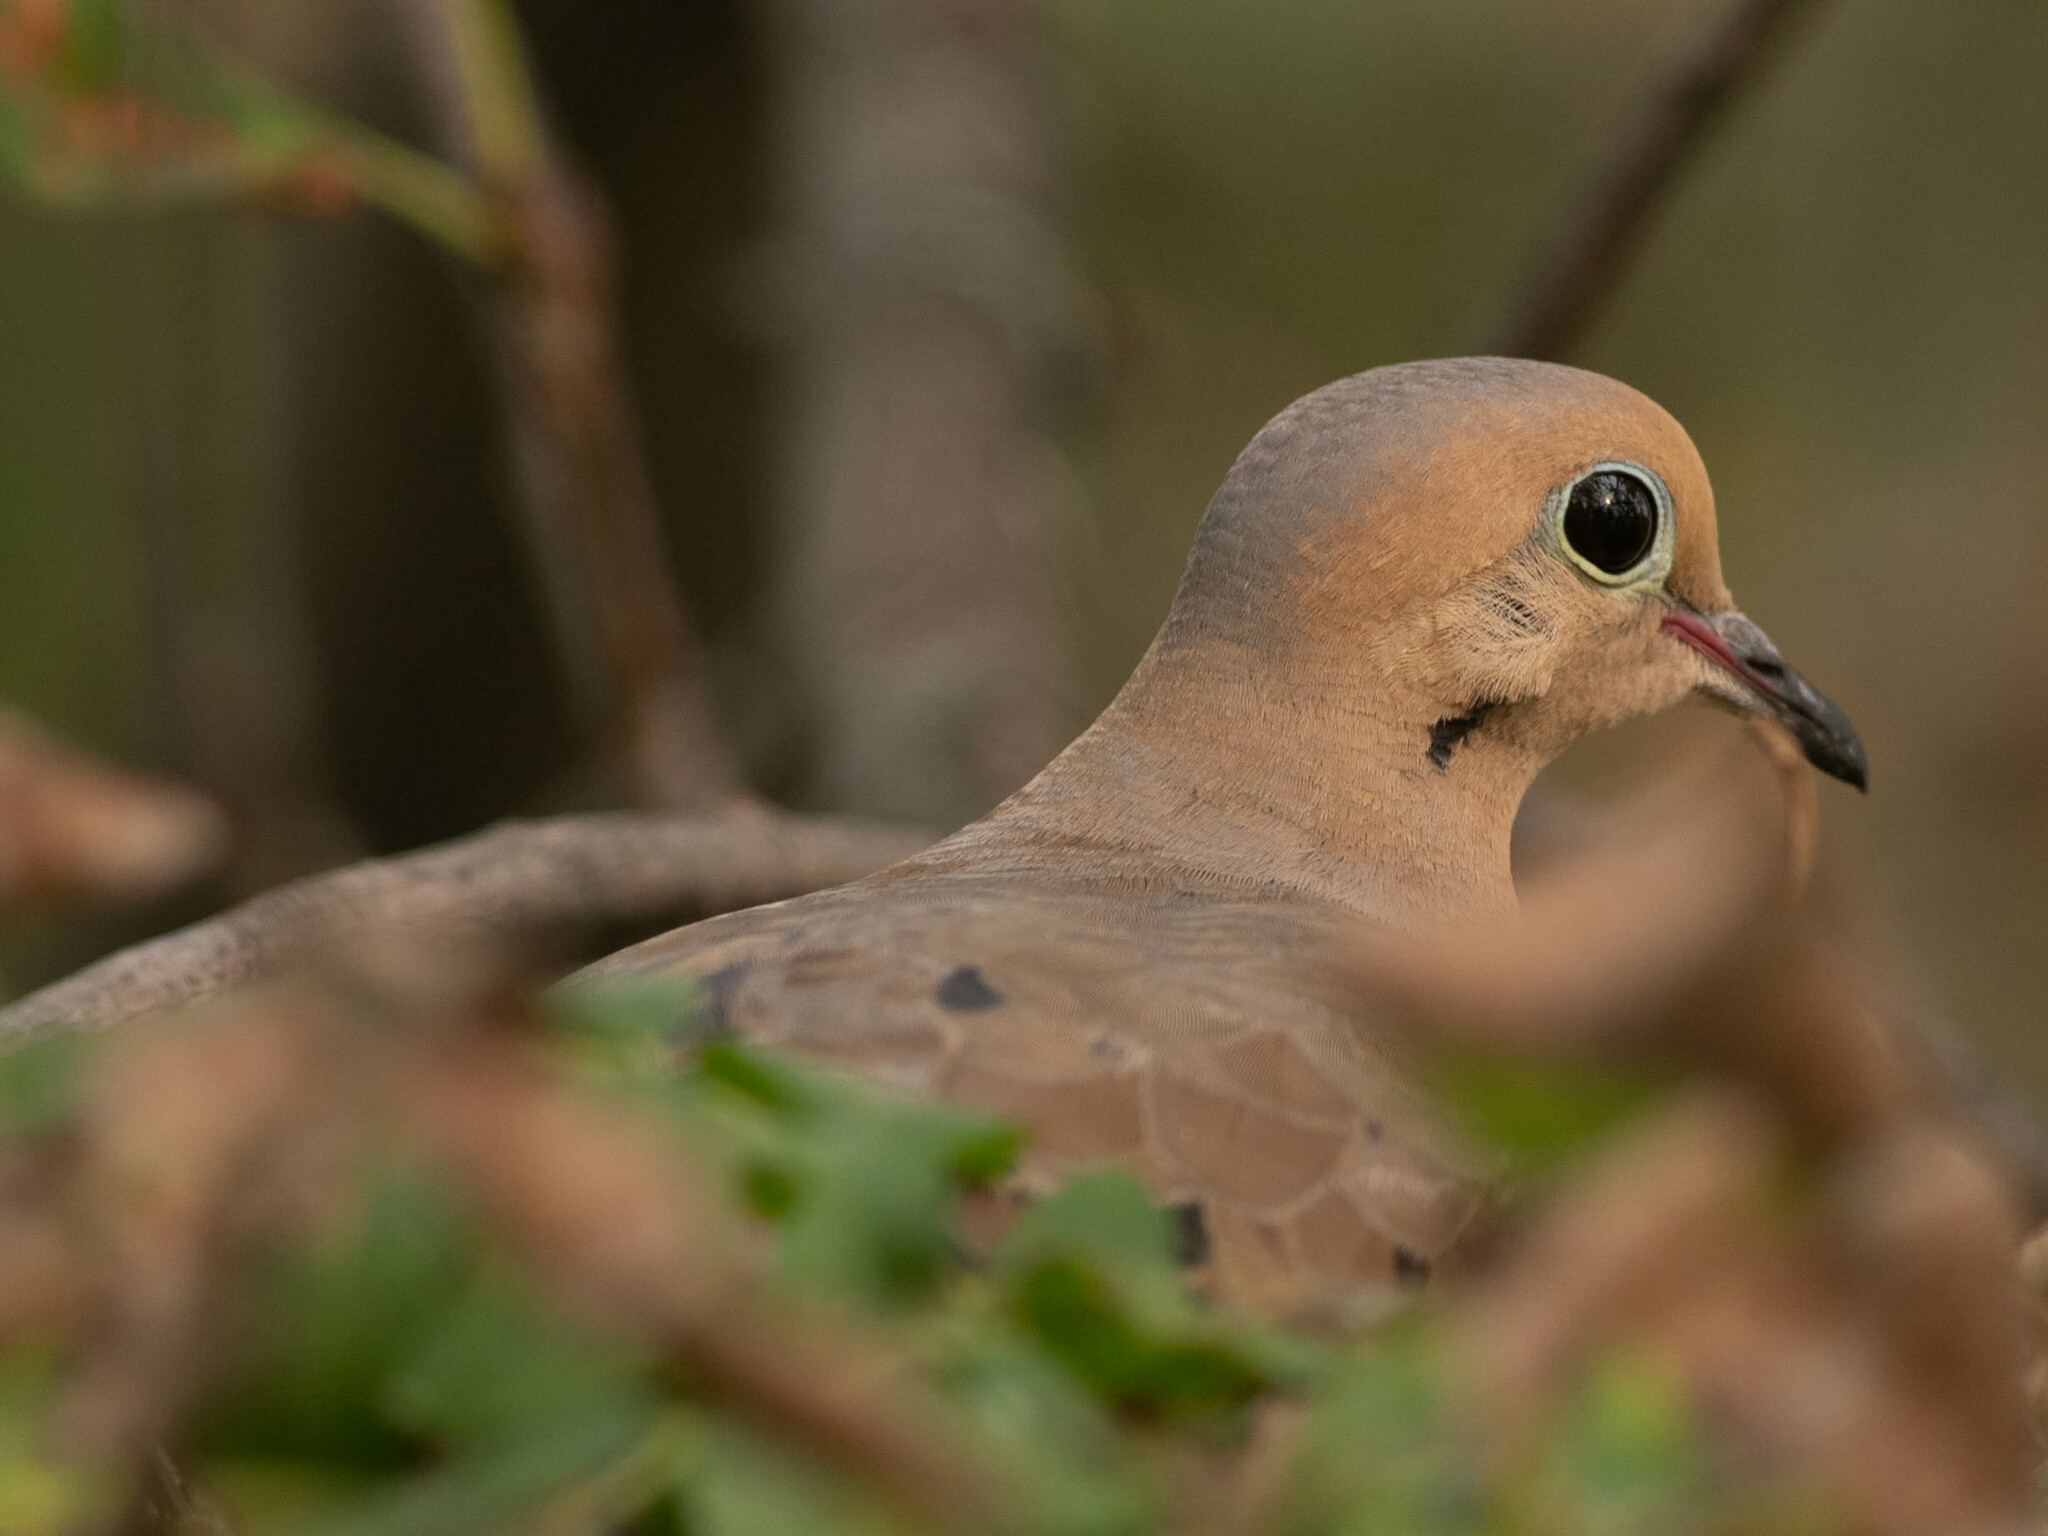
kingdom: Animalia
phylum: Chordata
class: Aves
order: Columbiformes
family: Columbidae
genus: Zenaida
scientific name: Zenaida macroura
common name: Mourning dove
